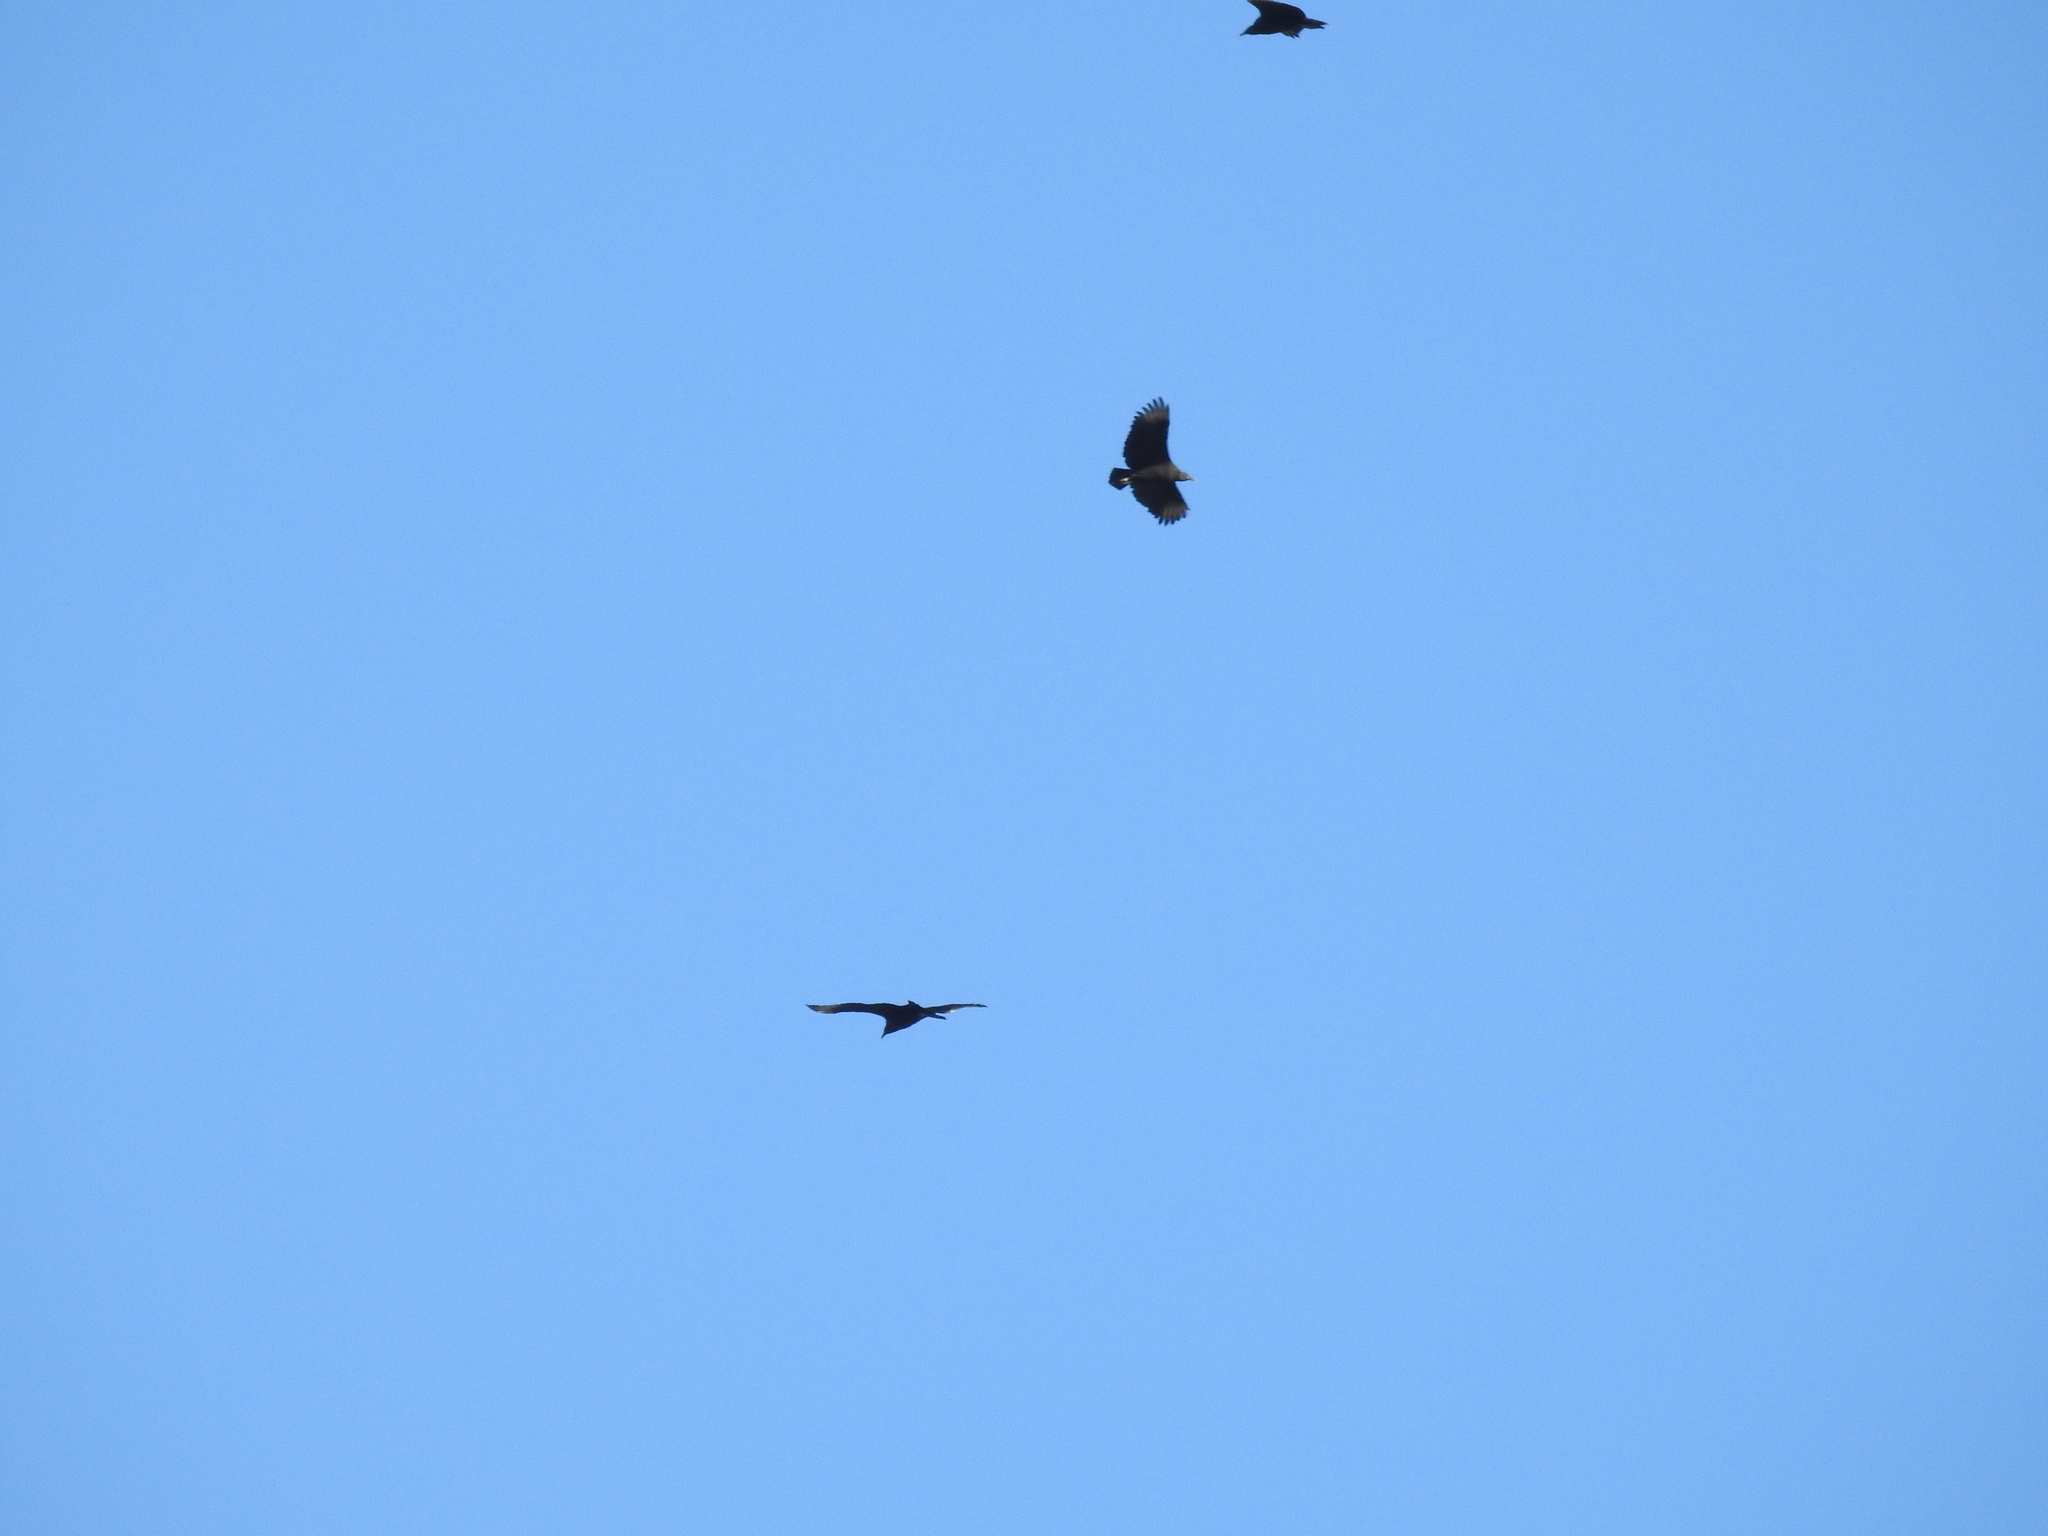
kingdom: Animalia
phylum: Chordata
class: Aves
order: Accipitriformes
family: Cathartidae
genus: Coragyps
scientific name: Coragyps atratus
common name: Black vulture
